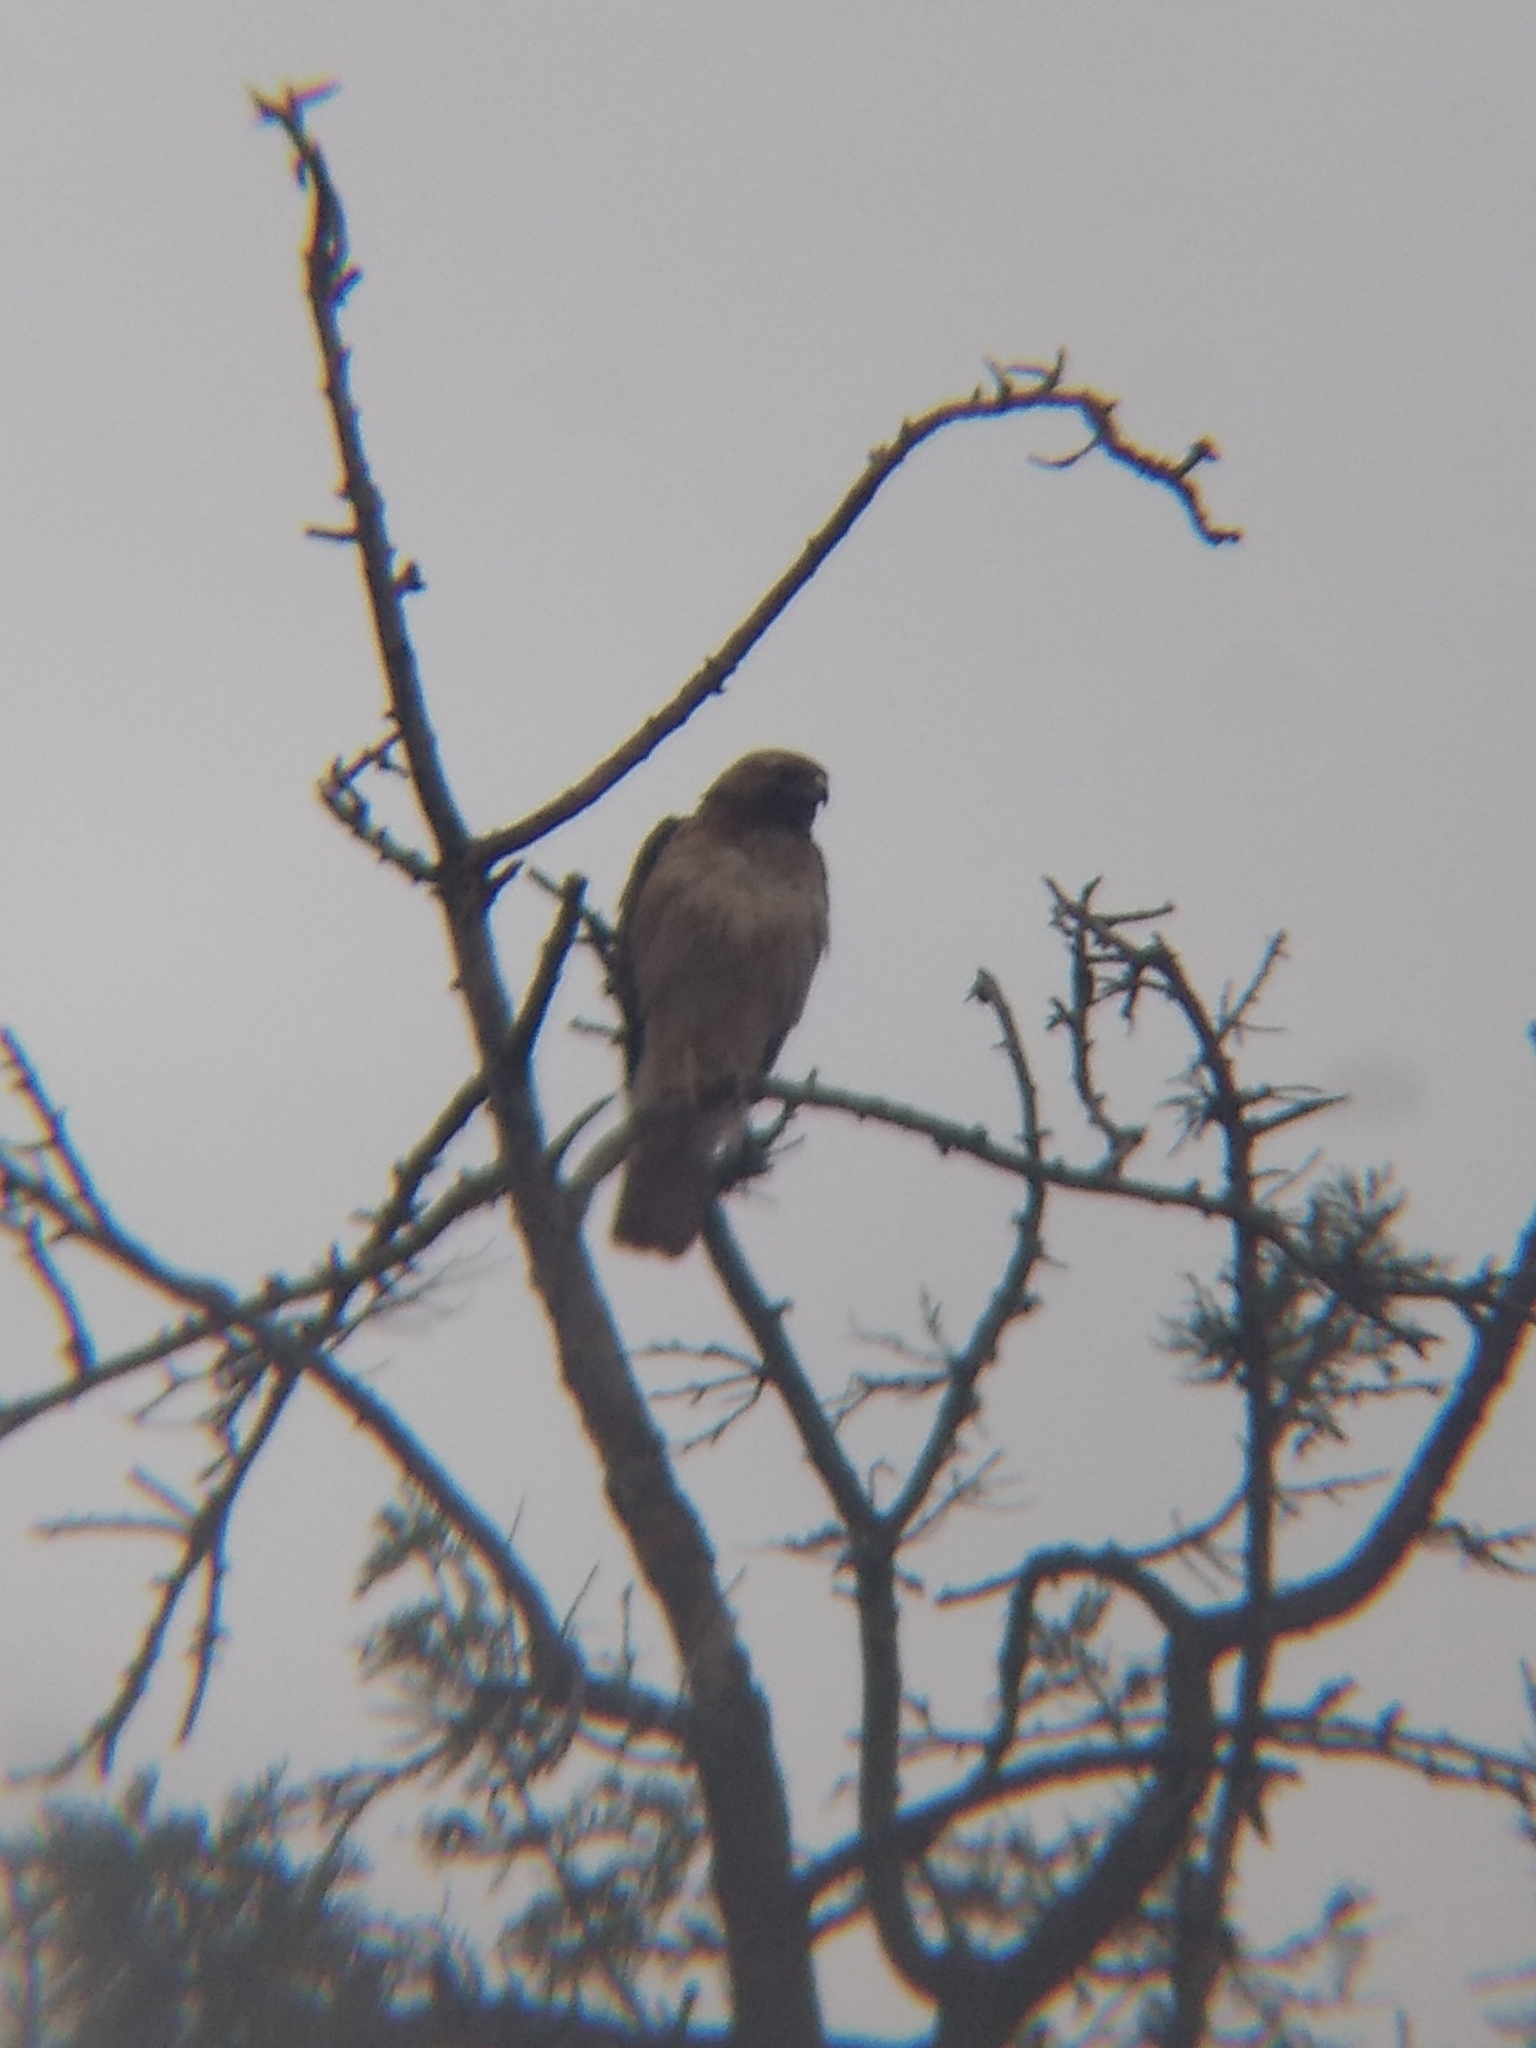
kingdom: Animalia
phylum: Chordata
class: Aves
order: Accipitriformes
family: Accipitridae
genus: Buteo
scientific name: Buteo jamaicensis
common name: Red-tailed hawk
